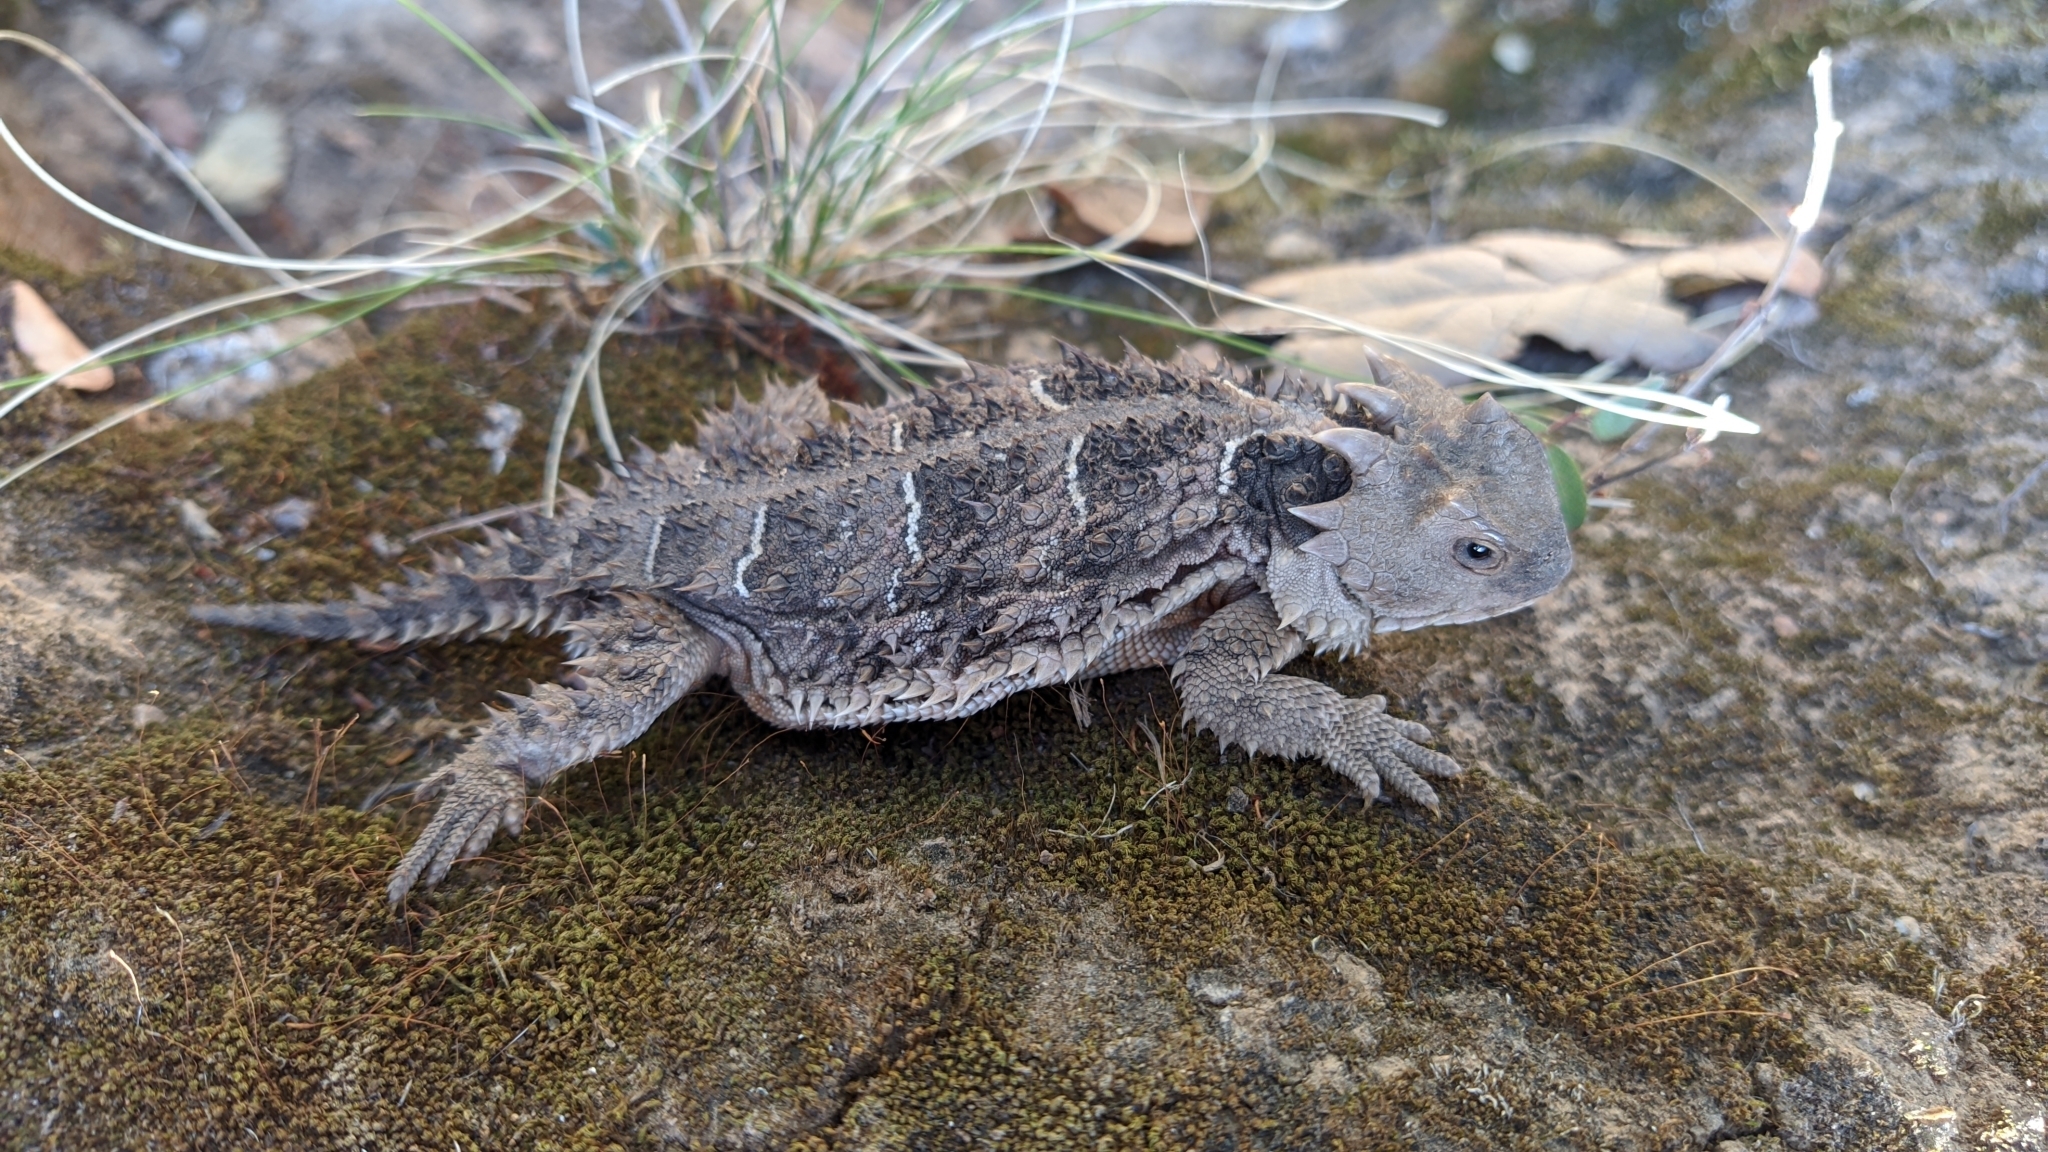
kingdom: Animalia
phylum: Chordata
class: Squamata
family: Phrynosomatidae
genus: Phrynosoma
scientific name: Phrynosoma orbiculare
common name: Mountain horned lizard
